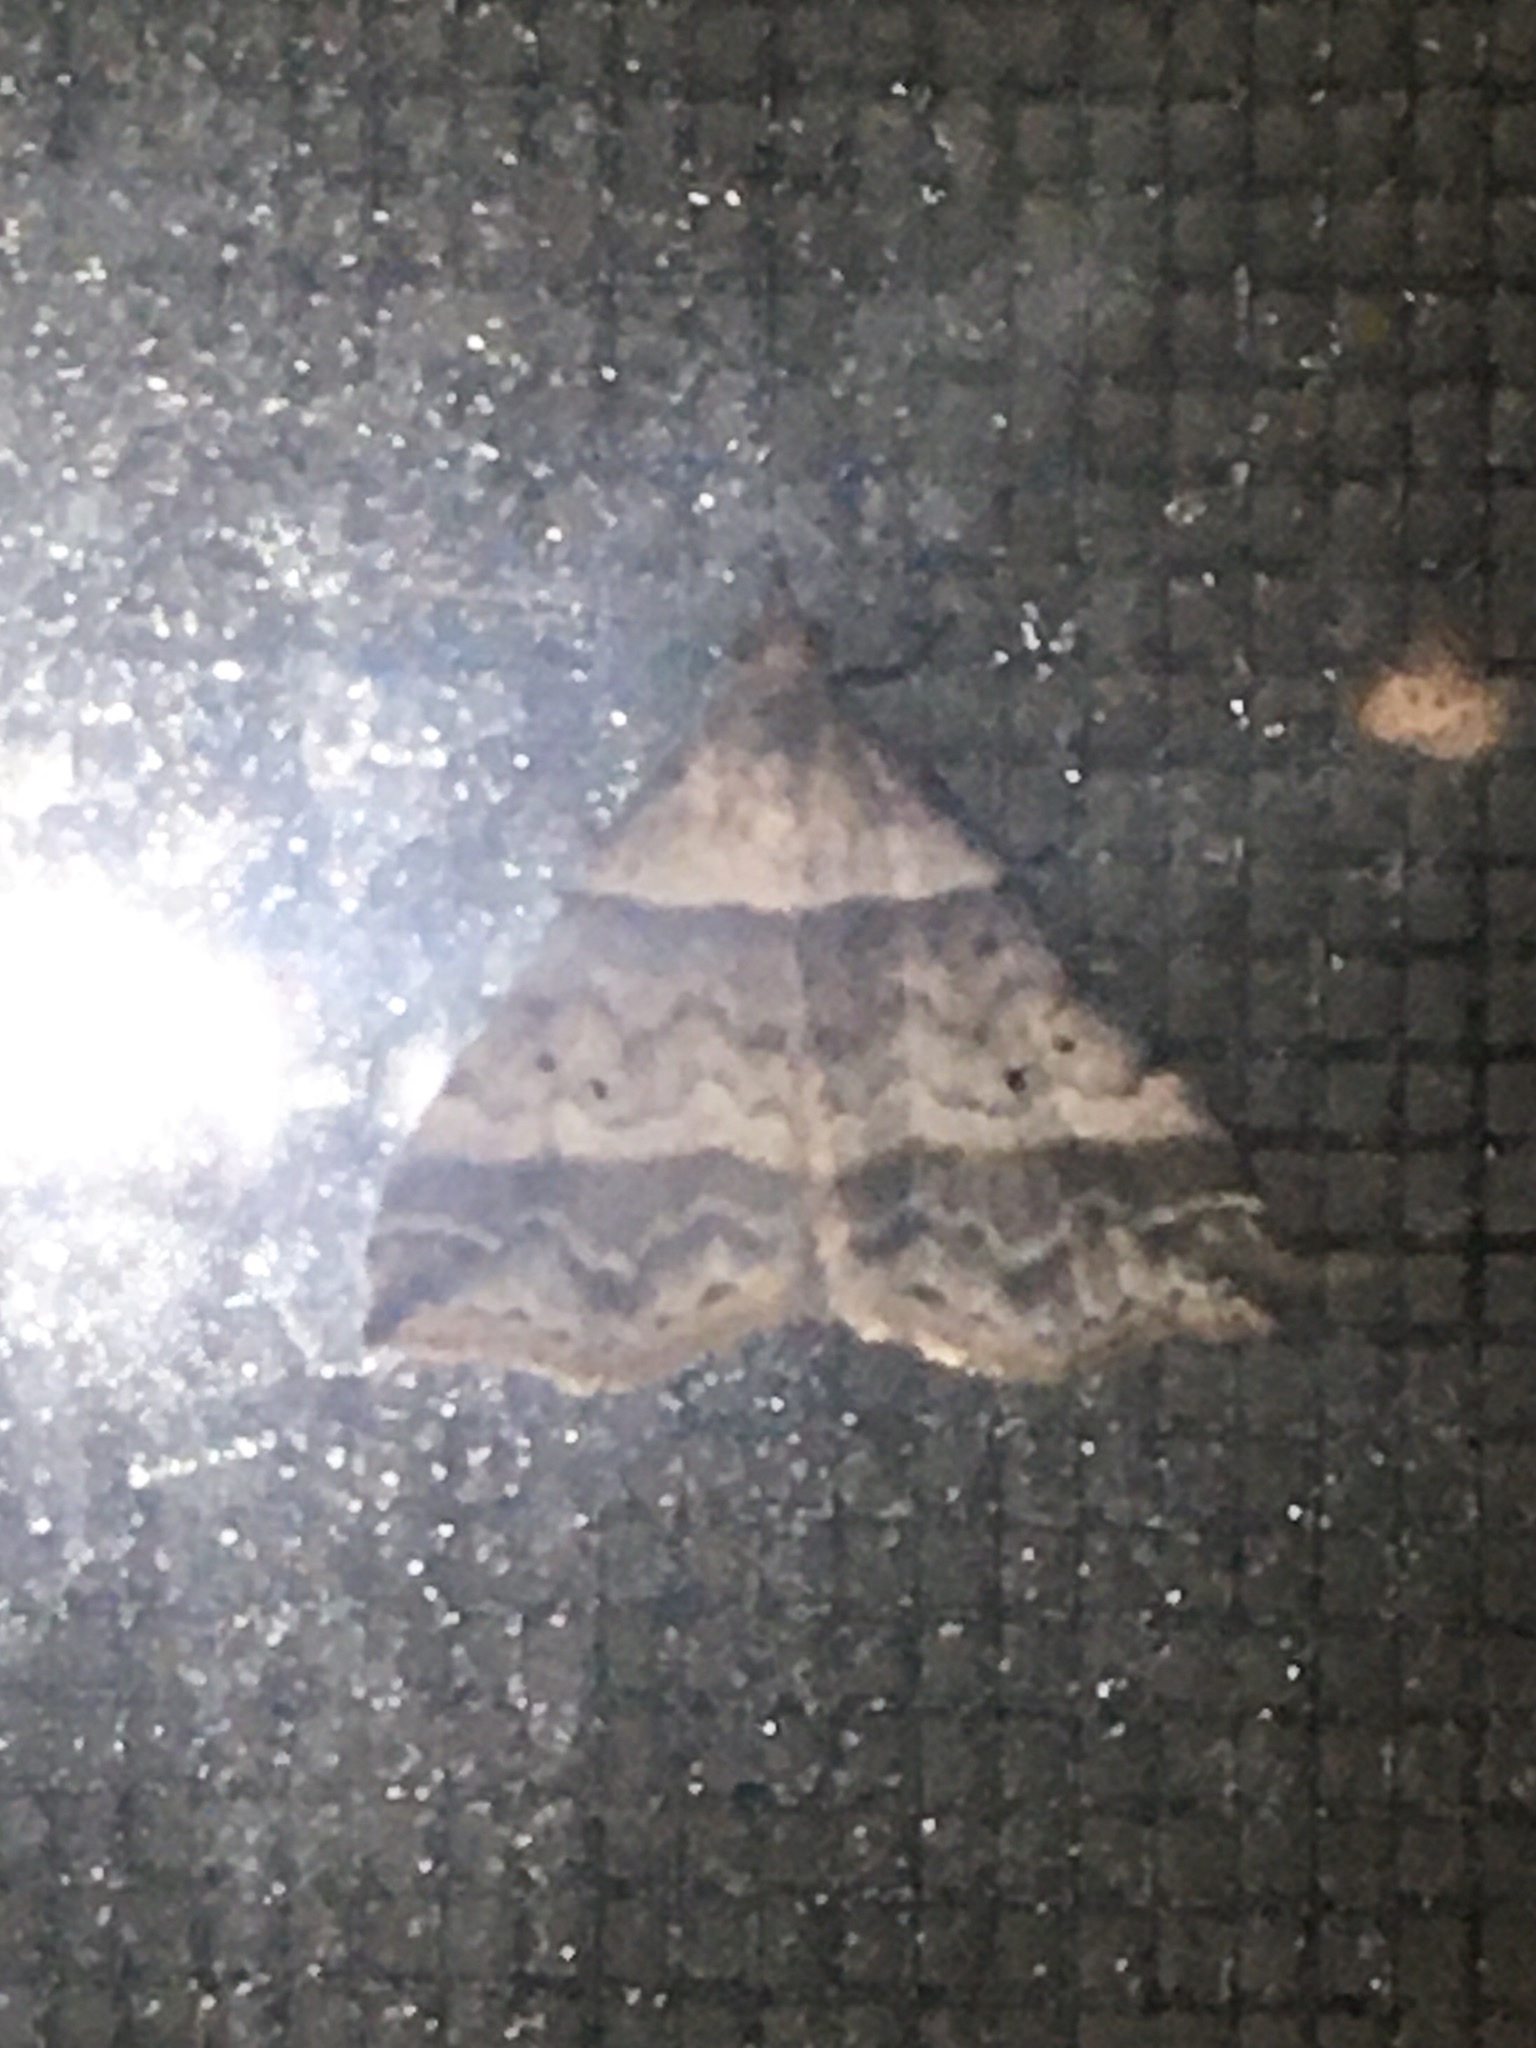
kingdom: Animalia
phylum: Arthropoda
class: Insecta
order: Lepidoptera
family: Erebidae
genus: Phaeolita
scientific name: Phaeolita pyramusalis
